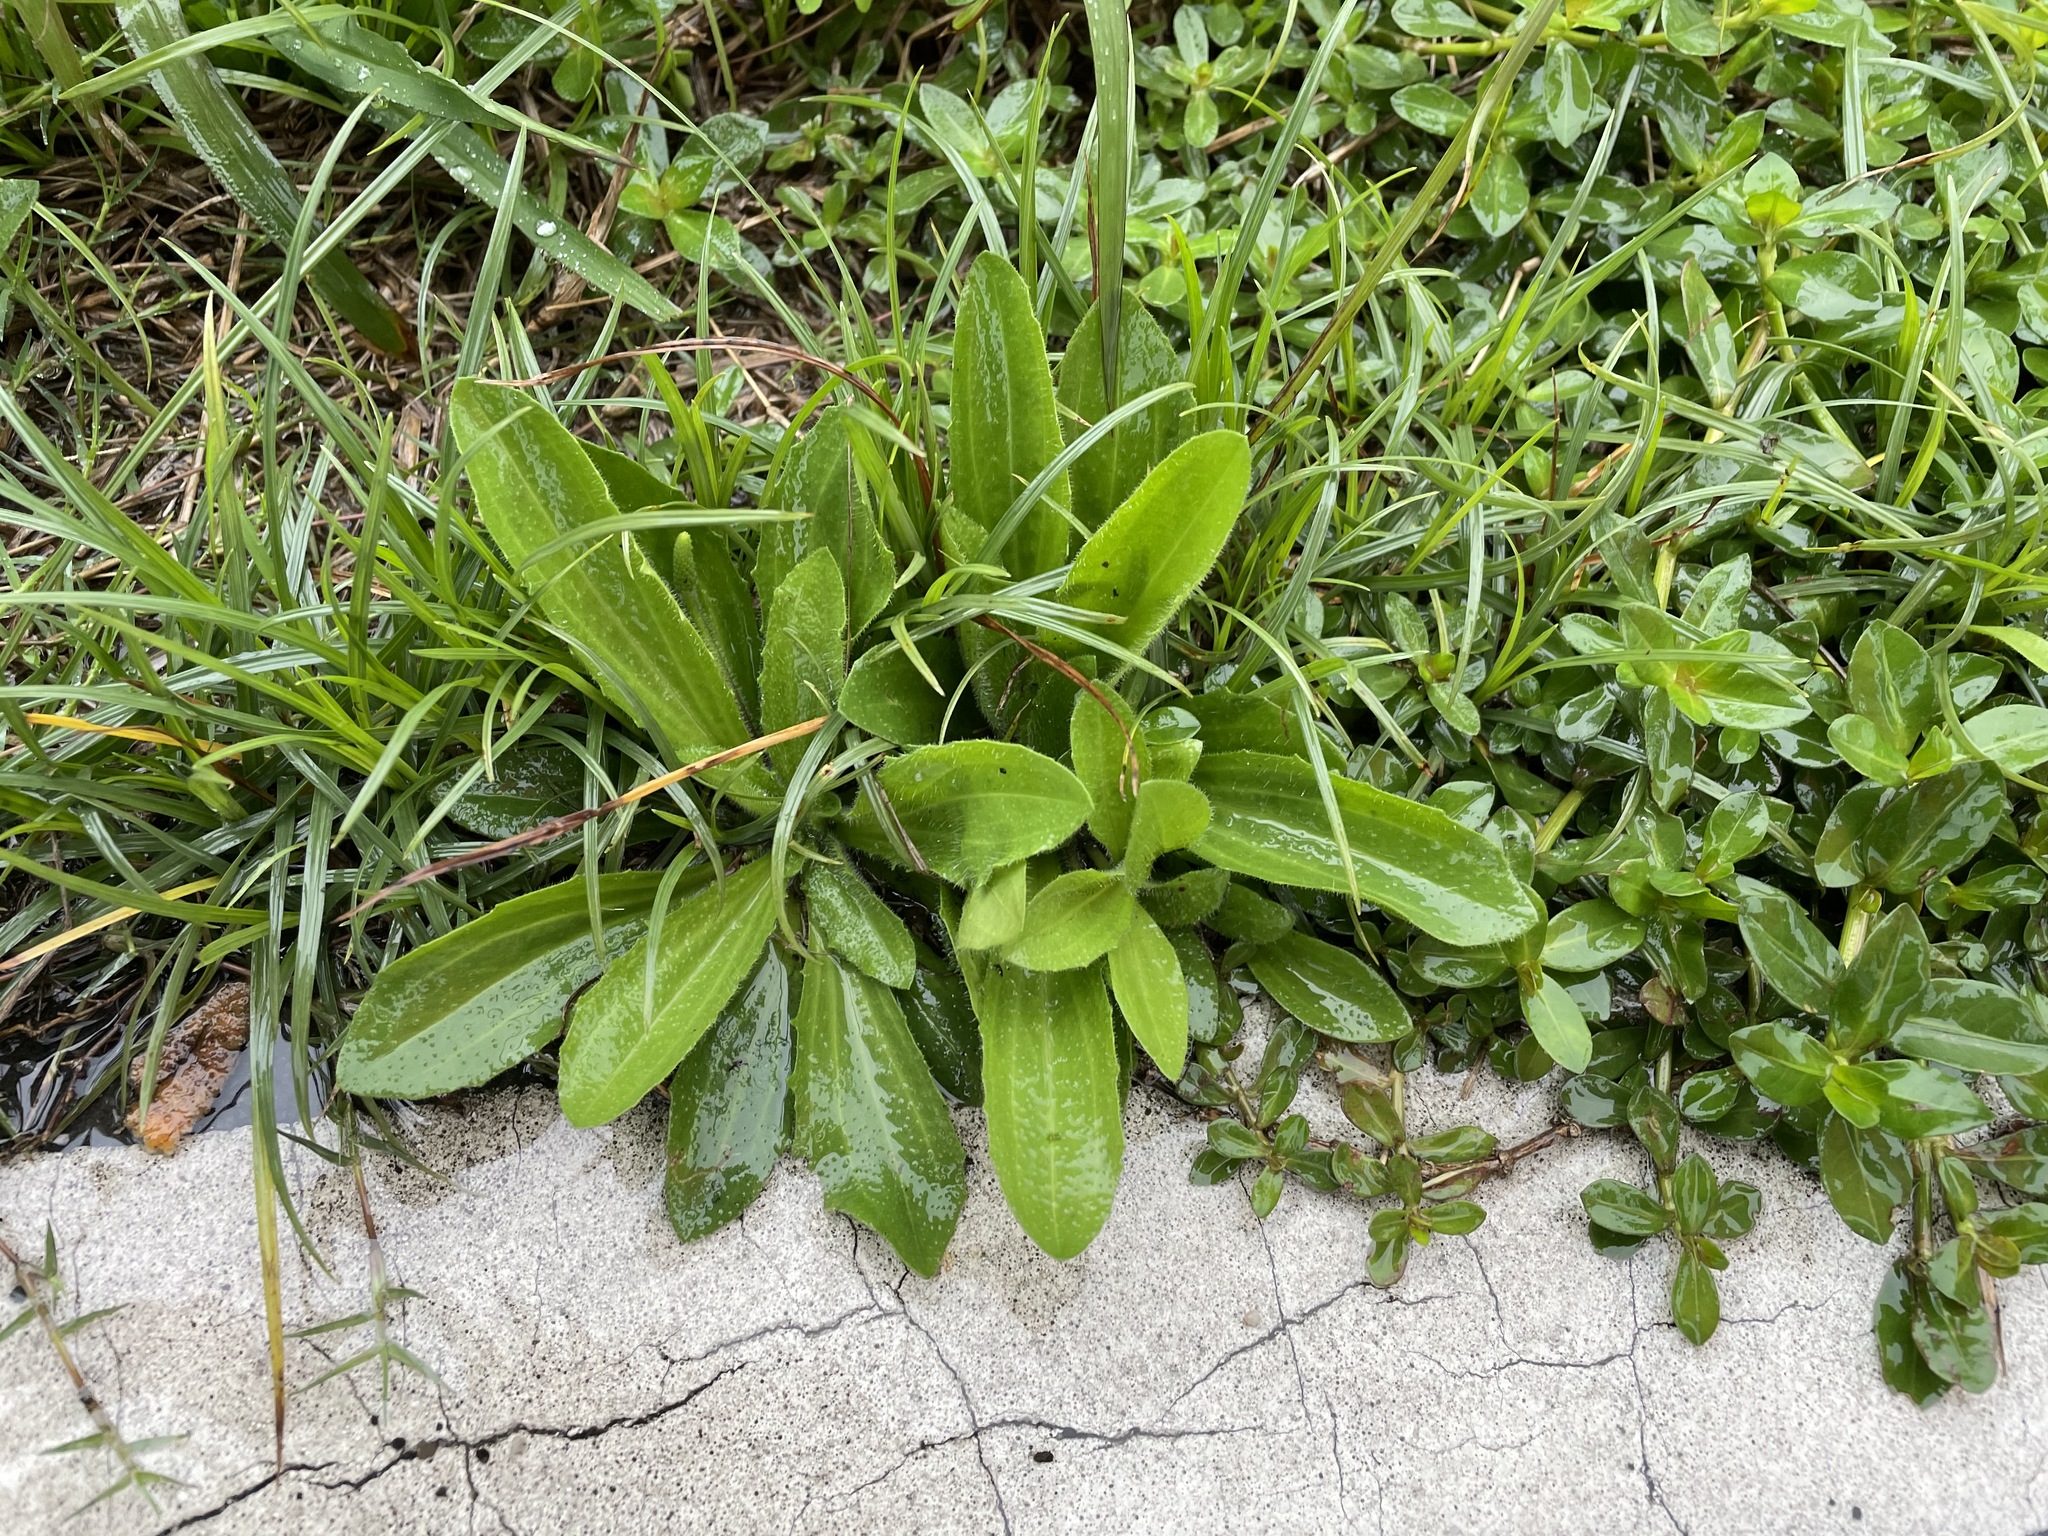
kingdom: Plantae
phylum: Tracheophyta
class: Magnoliopsida
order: Lamiales
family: Plantaginaceae
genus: Plantago
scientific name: Plantago virginica
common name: Hoary plantain
